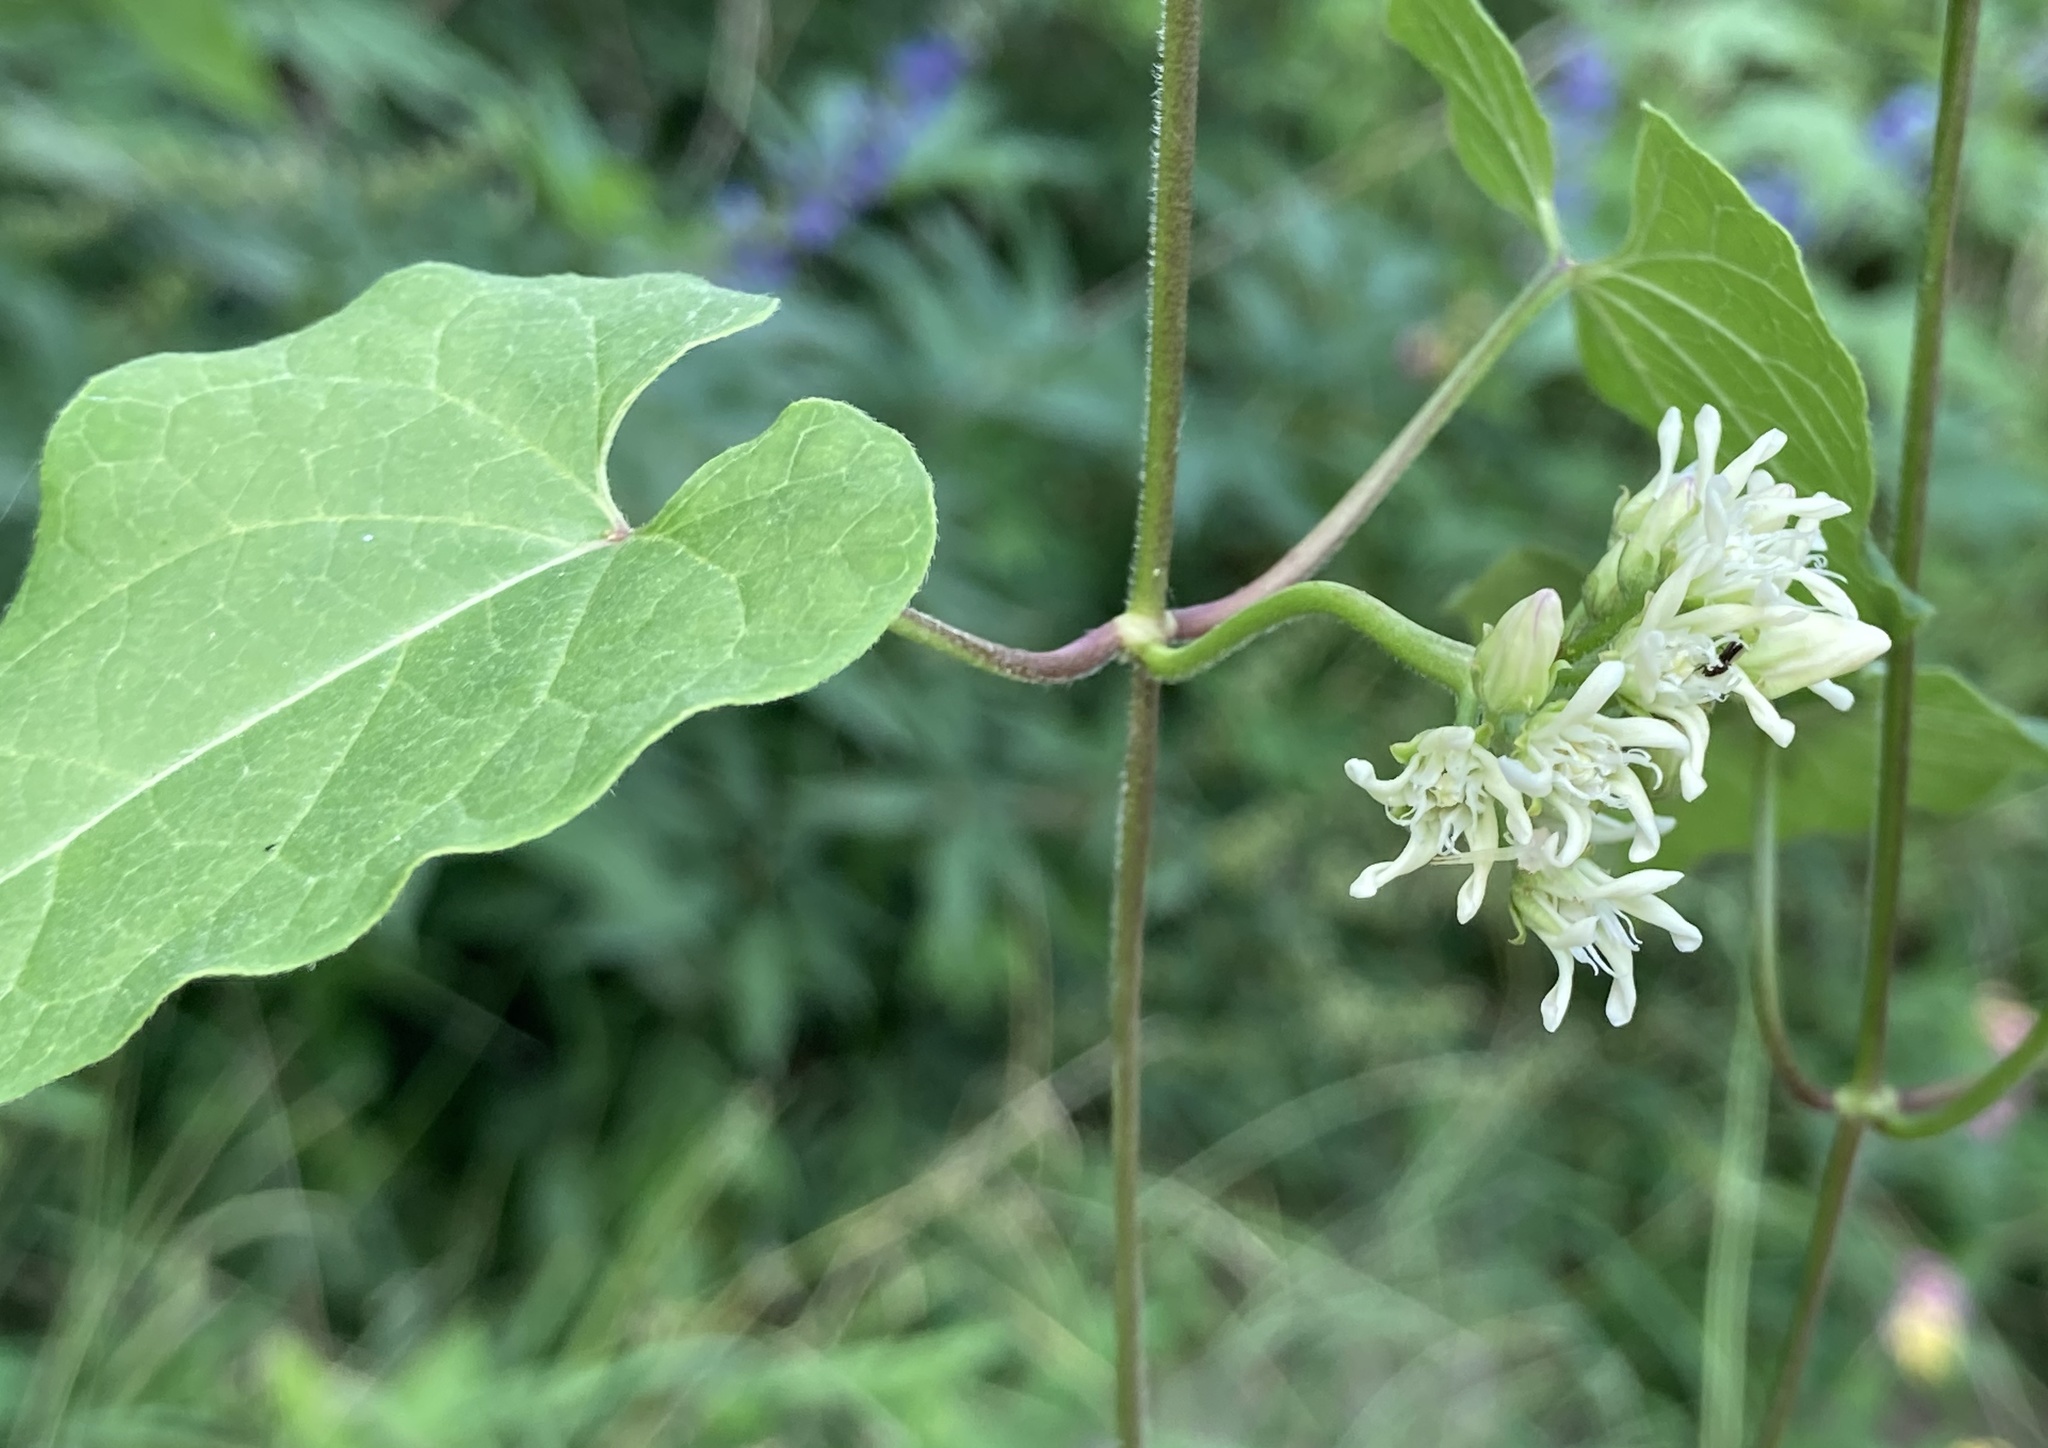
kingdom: Plantae
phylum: Tracheophyta
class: Magnoliopsida
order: Gentianales
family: Apocynaceae
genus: Cynanchum
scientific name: Cynanchum laeve
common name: Sandvine
